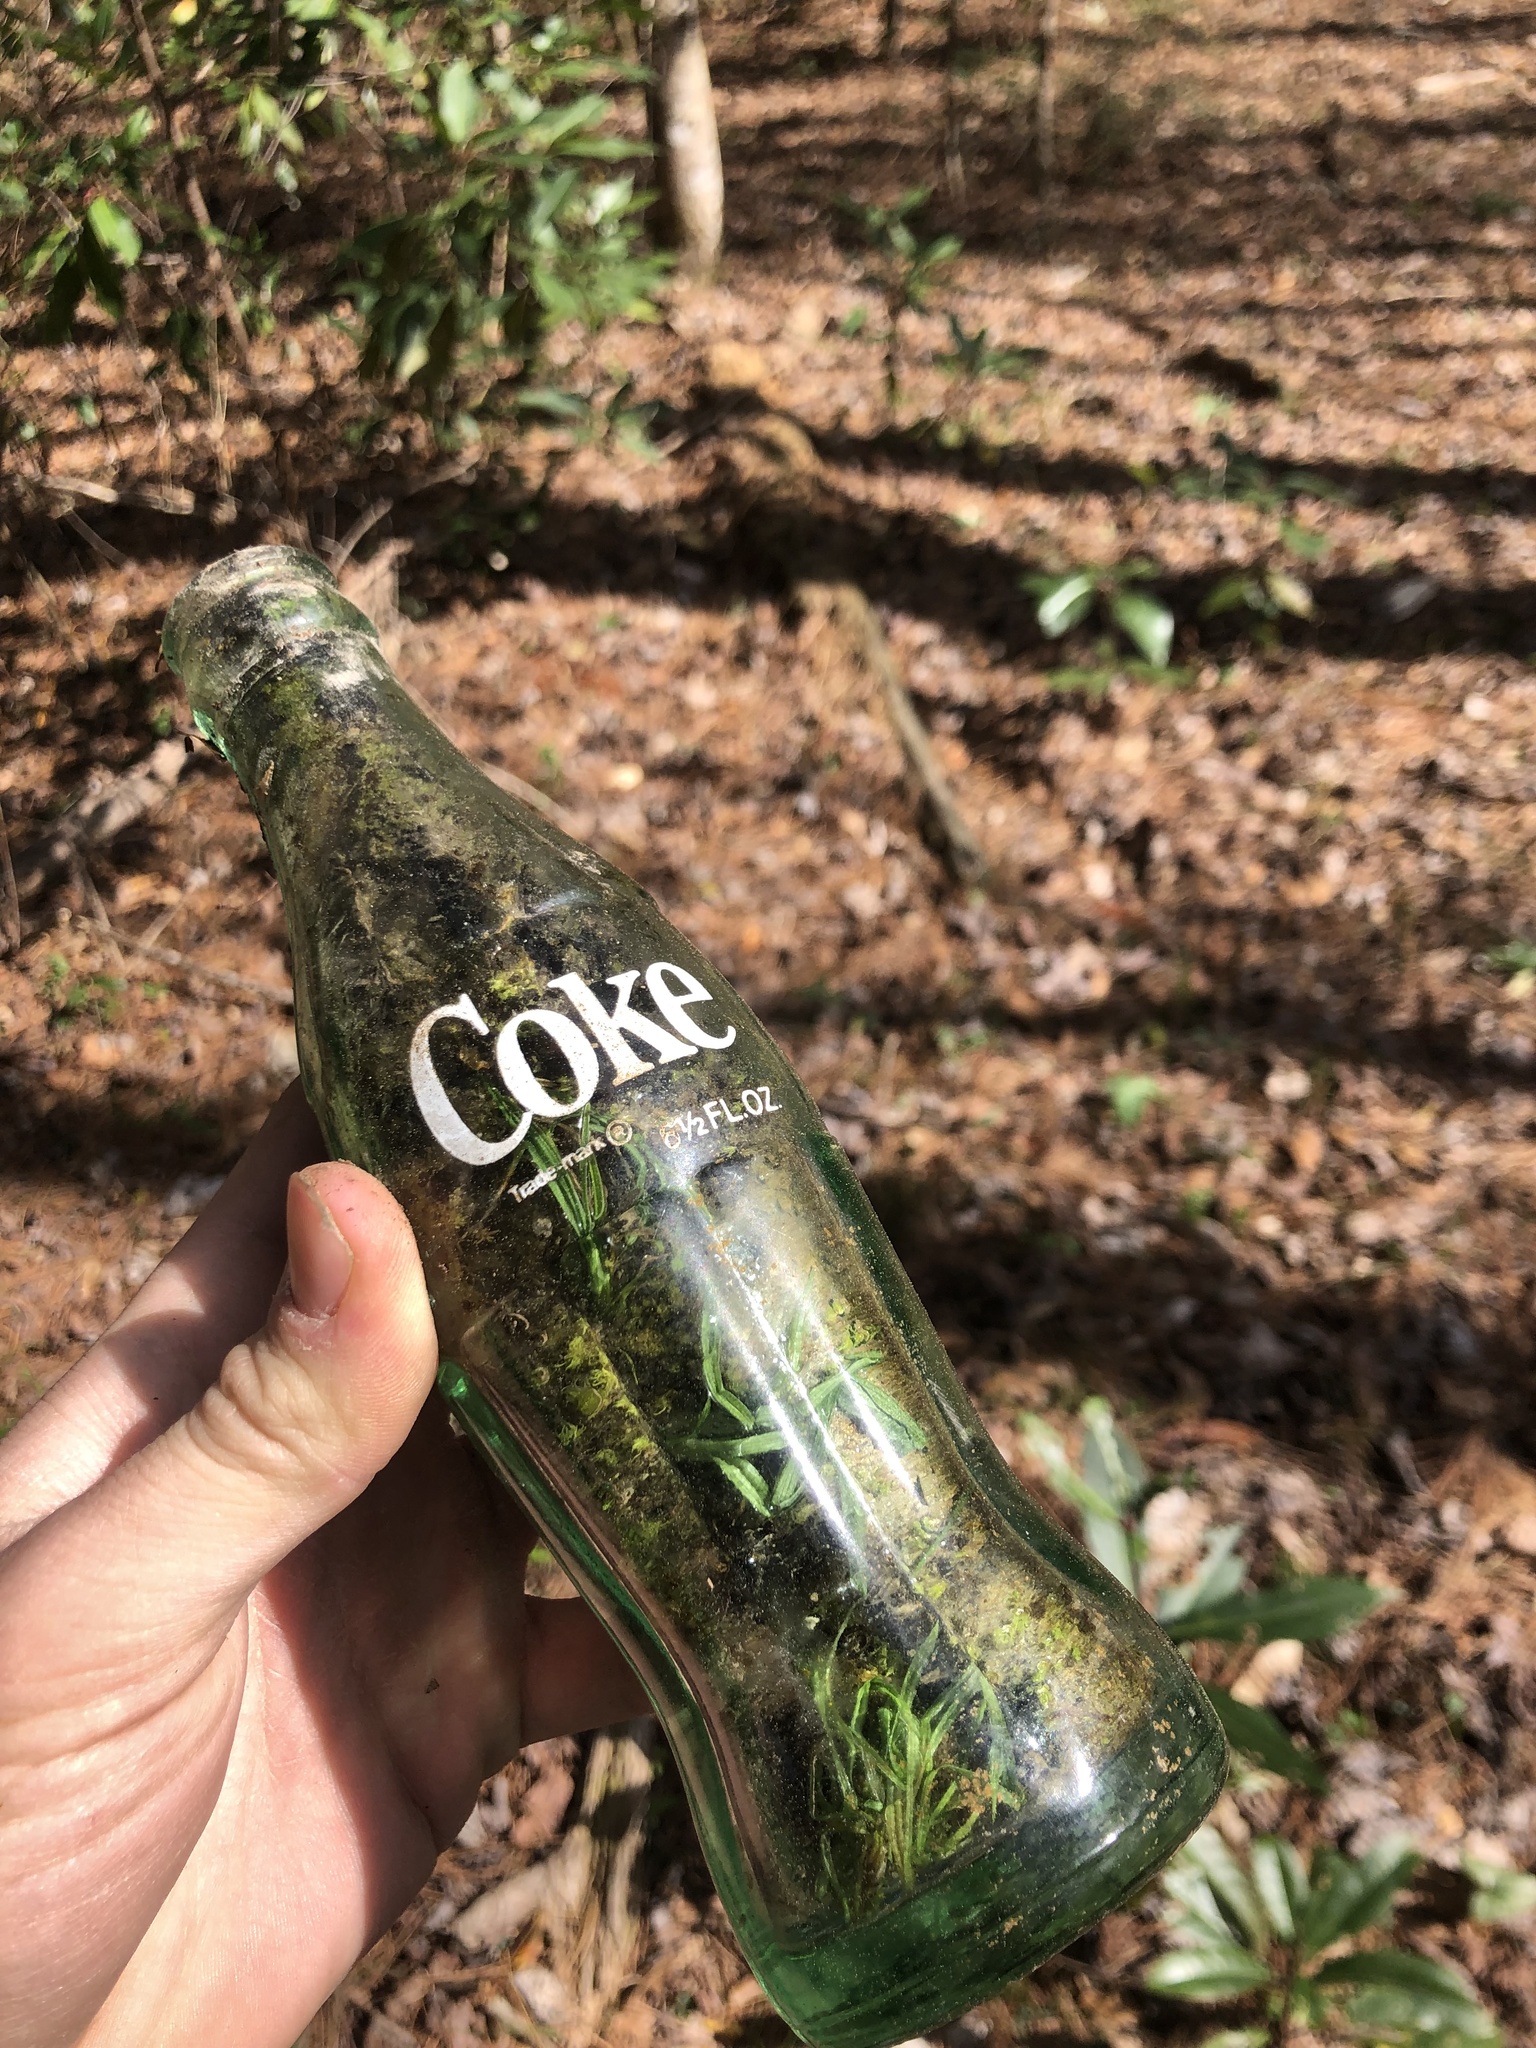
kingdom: Plantae
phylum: Bryophyta
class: Polytrichopsida
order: Polytrichales
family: Polytrichaceae
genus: Atrichum
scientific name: Atrichum angustatum
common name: Lesser smoothcap
